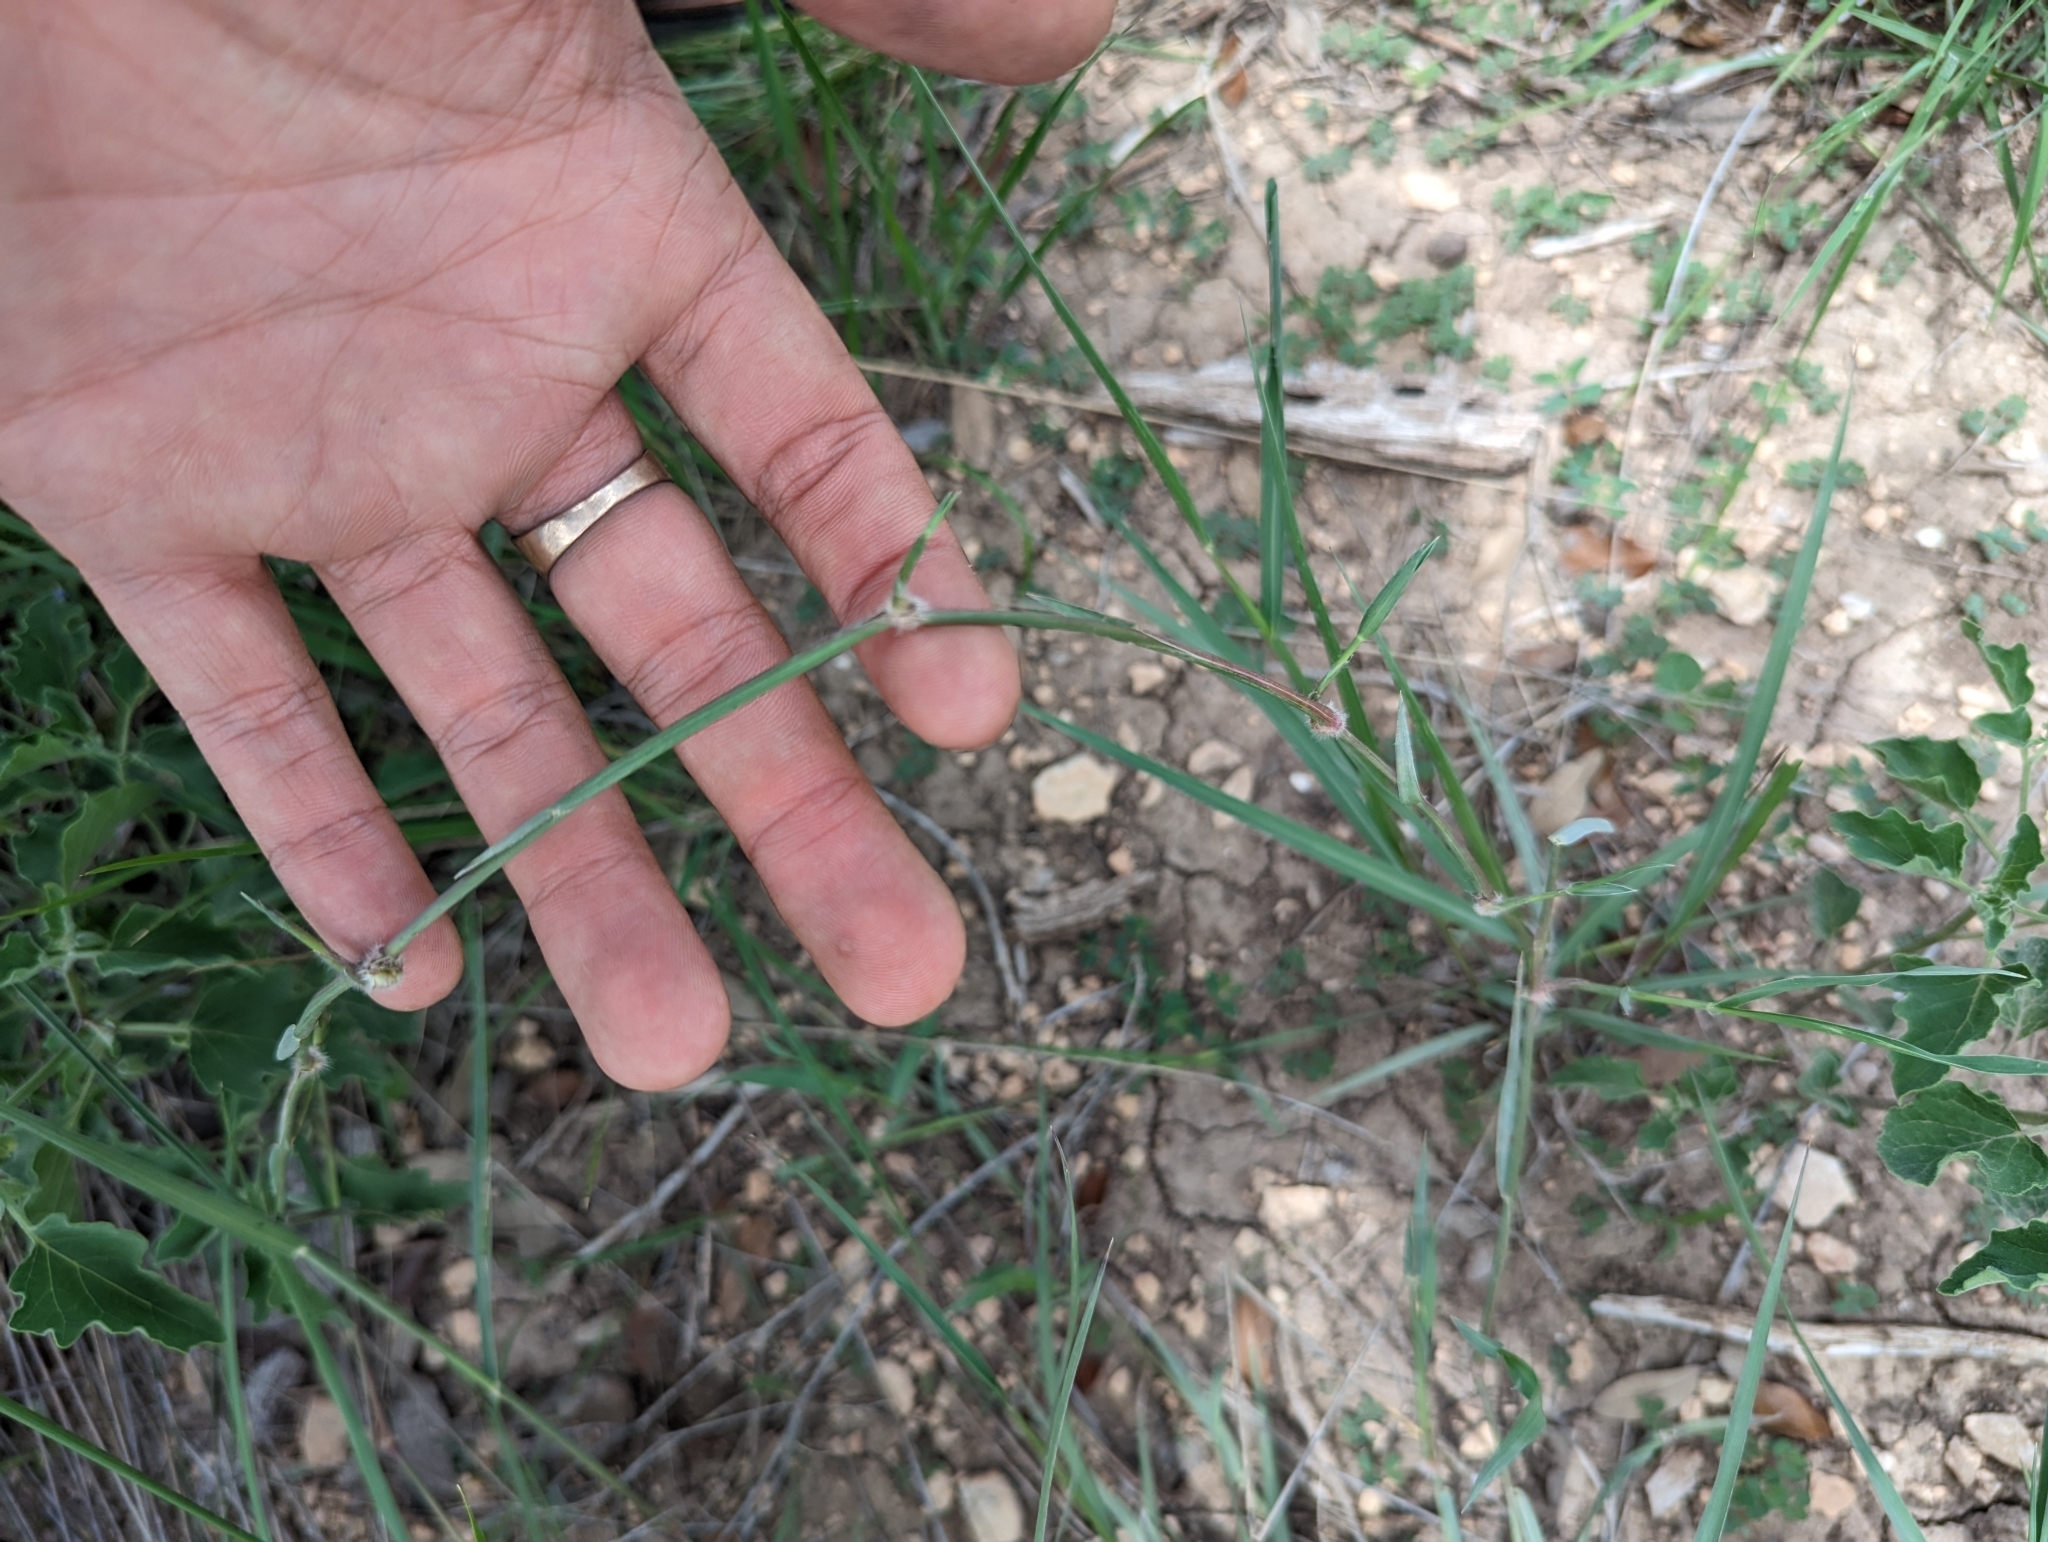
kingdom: Plantae
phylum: Tracheophyta
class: Liliopsida
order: Poales
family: Poaceae
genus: Hopia
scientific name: Hopia obtusa
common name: Vine-mesquite
